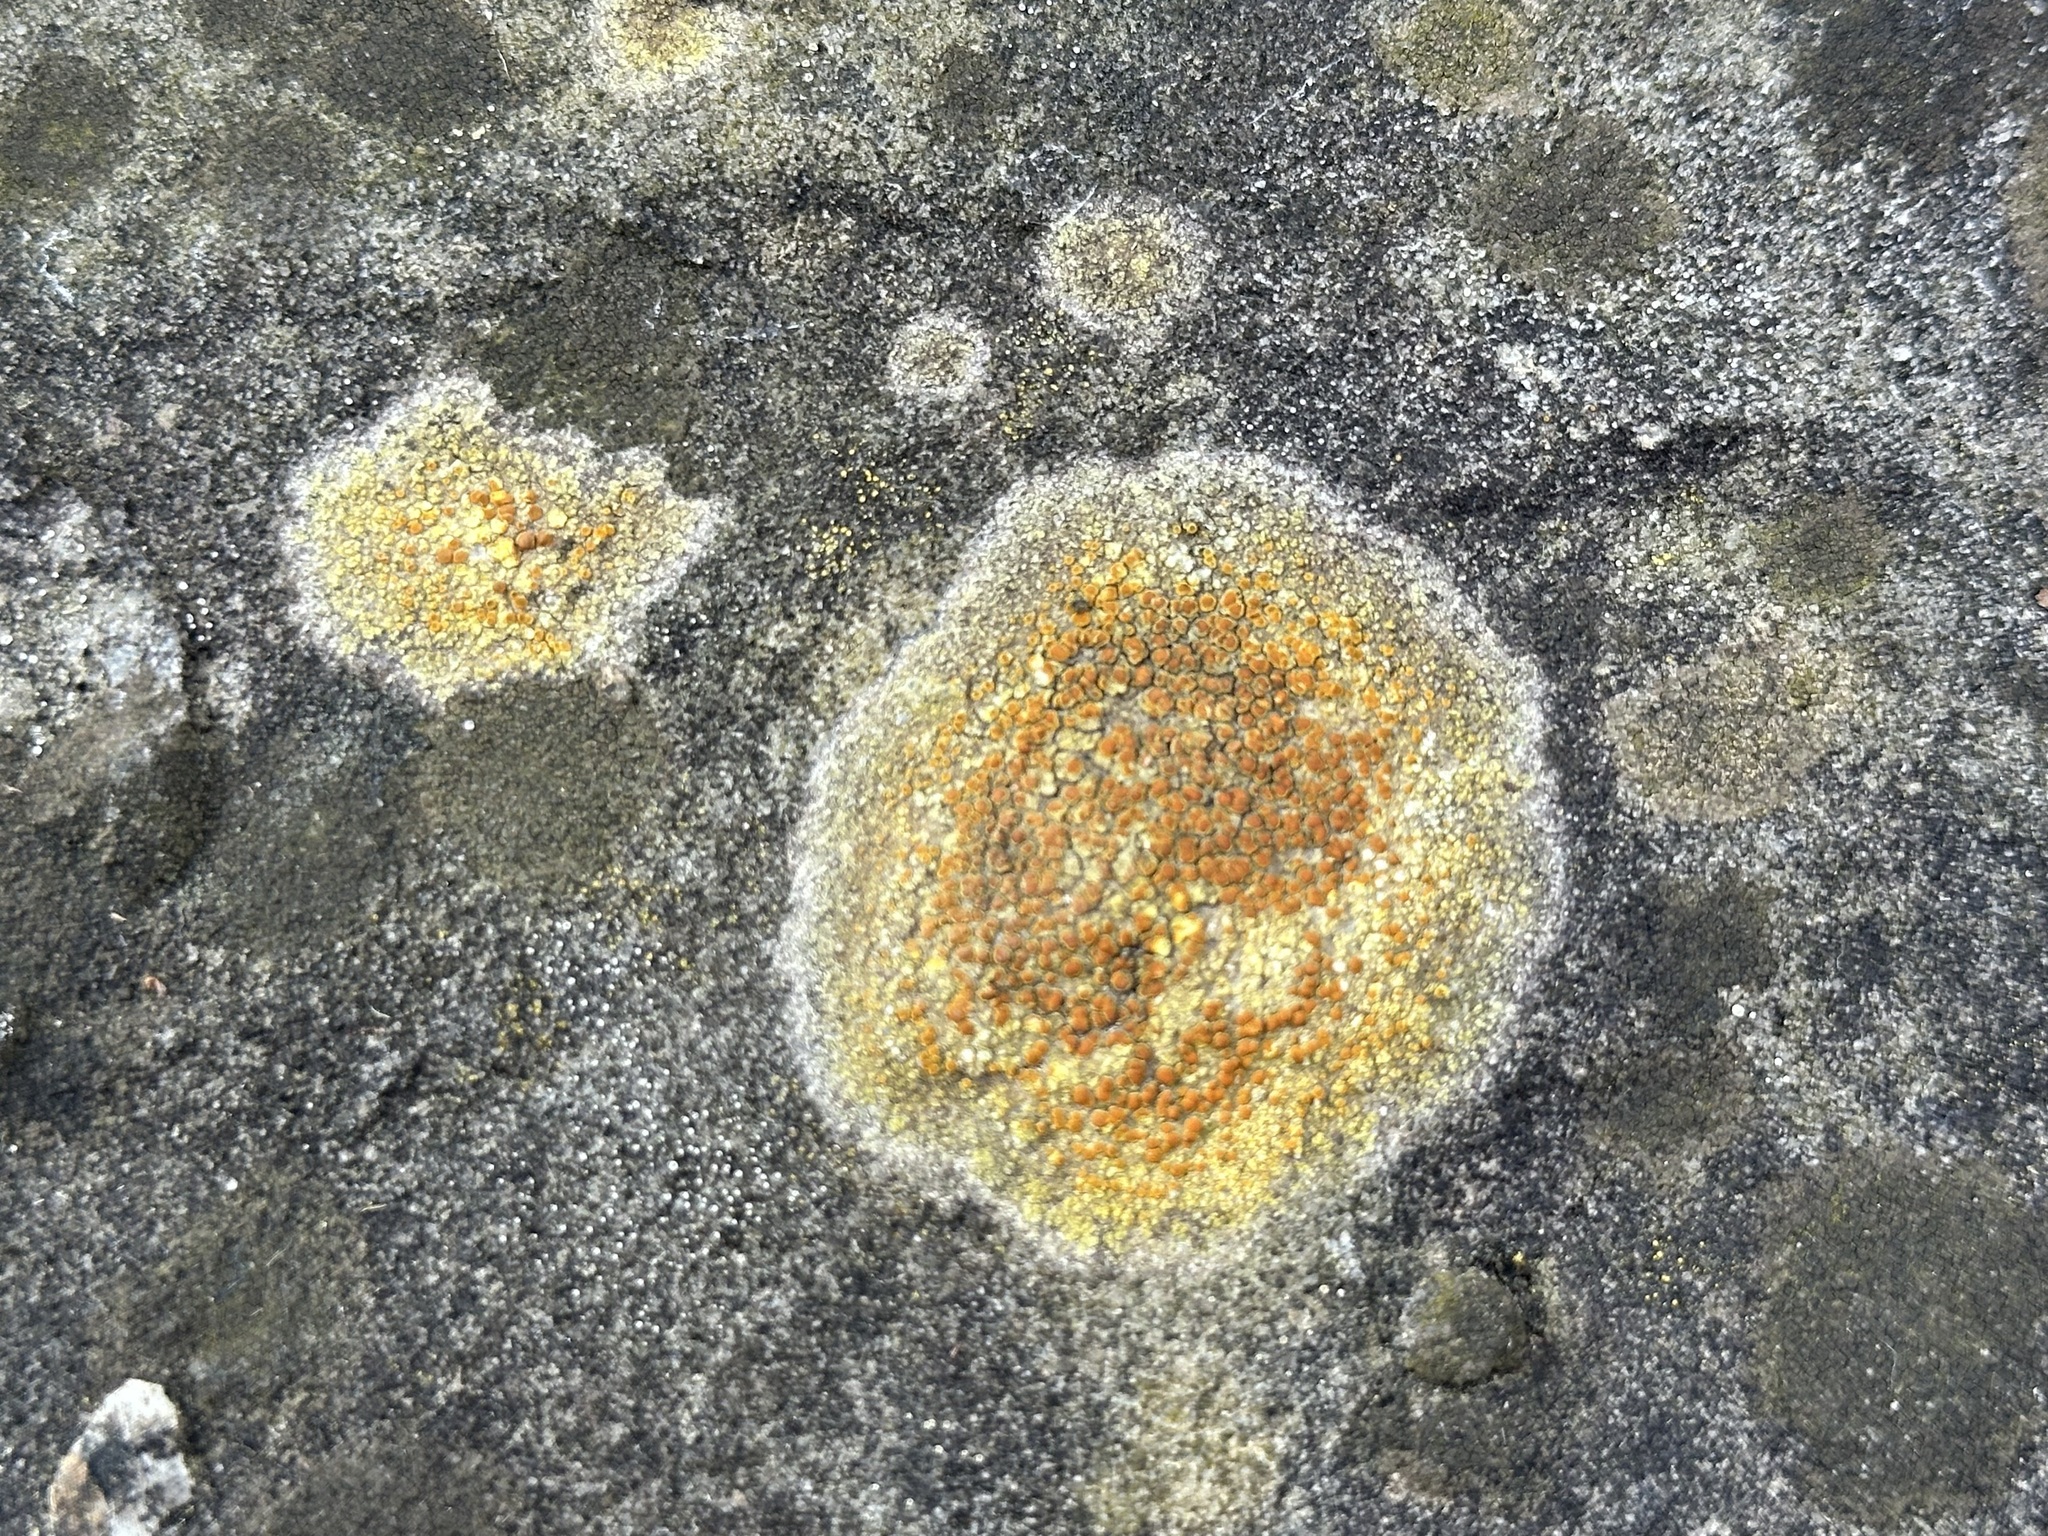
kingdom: Fungi
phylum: Ascomycota
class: Lecanoromycetes
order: Teloschistales
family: Teloschistaceae
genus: Gyalolechia
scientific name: Gyalolechia flavovirescens
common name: Sulphur firedot
